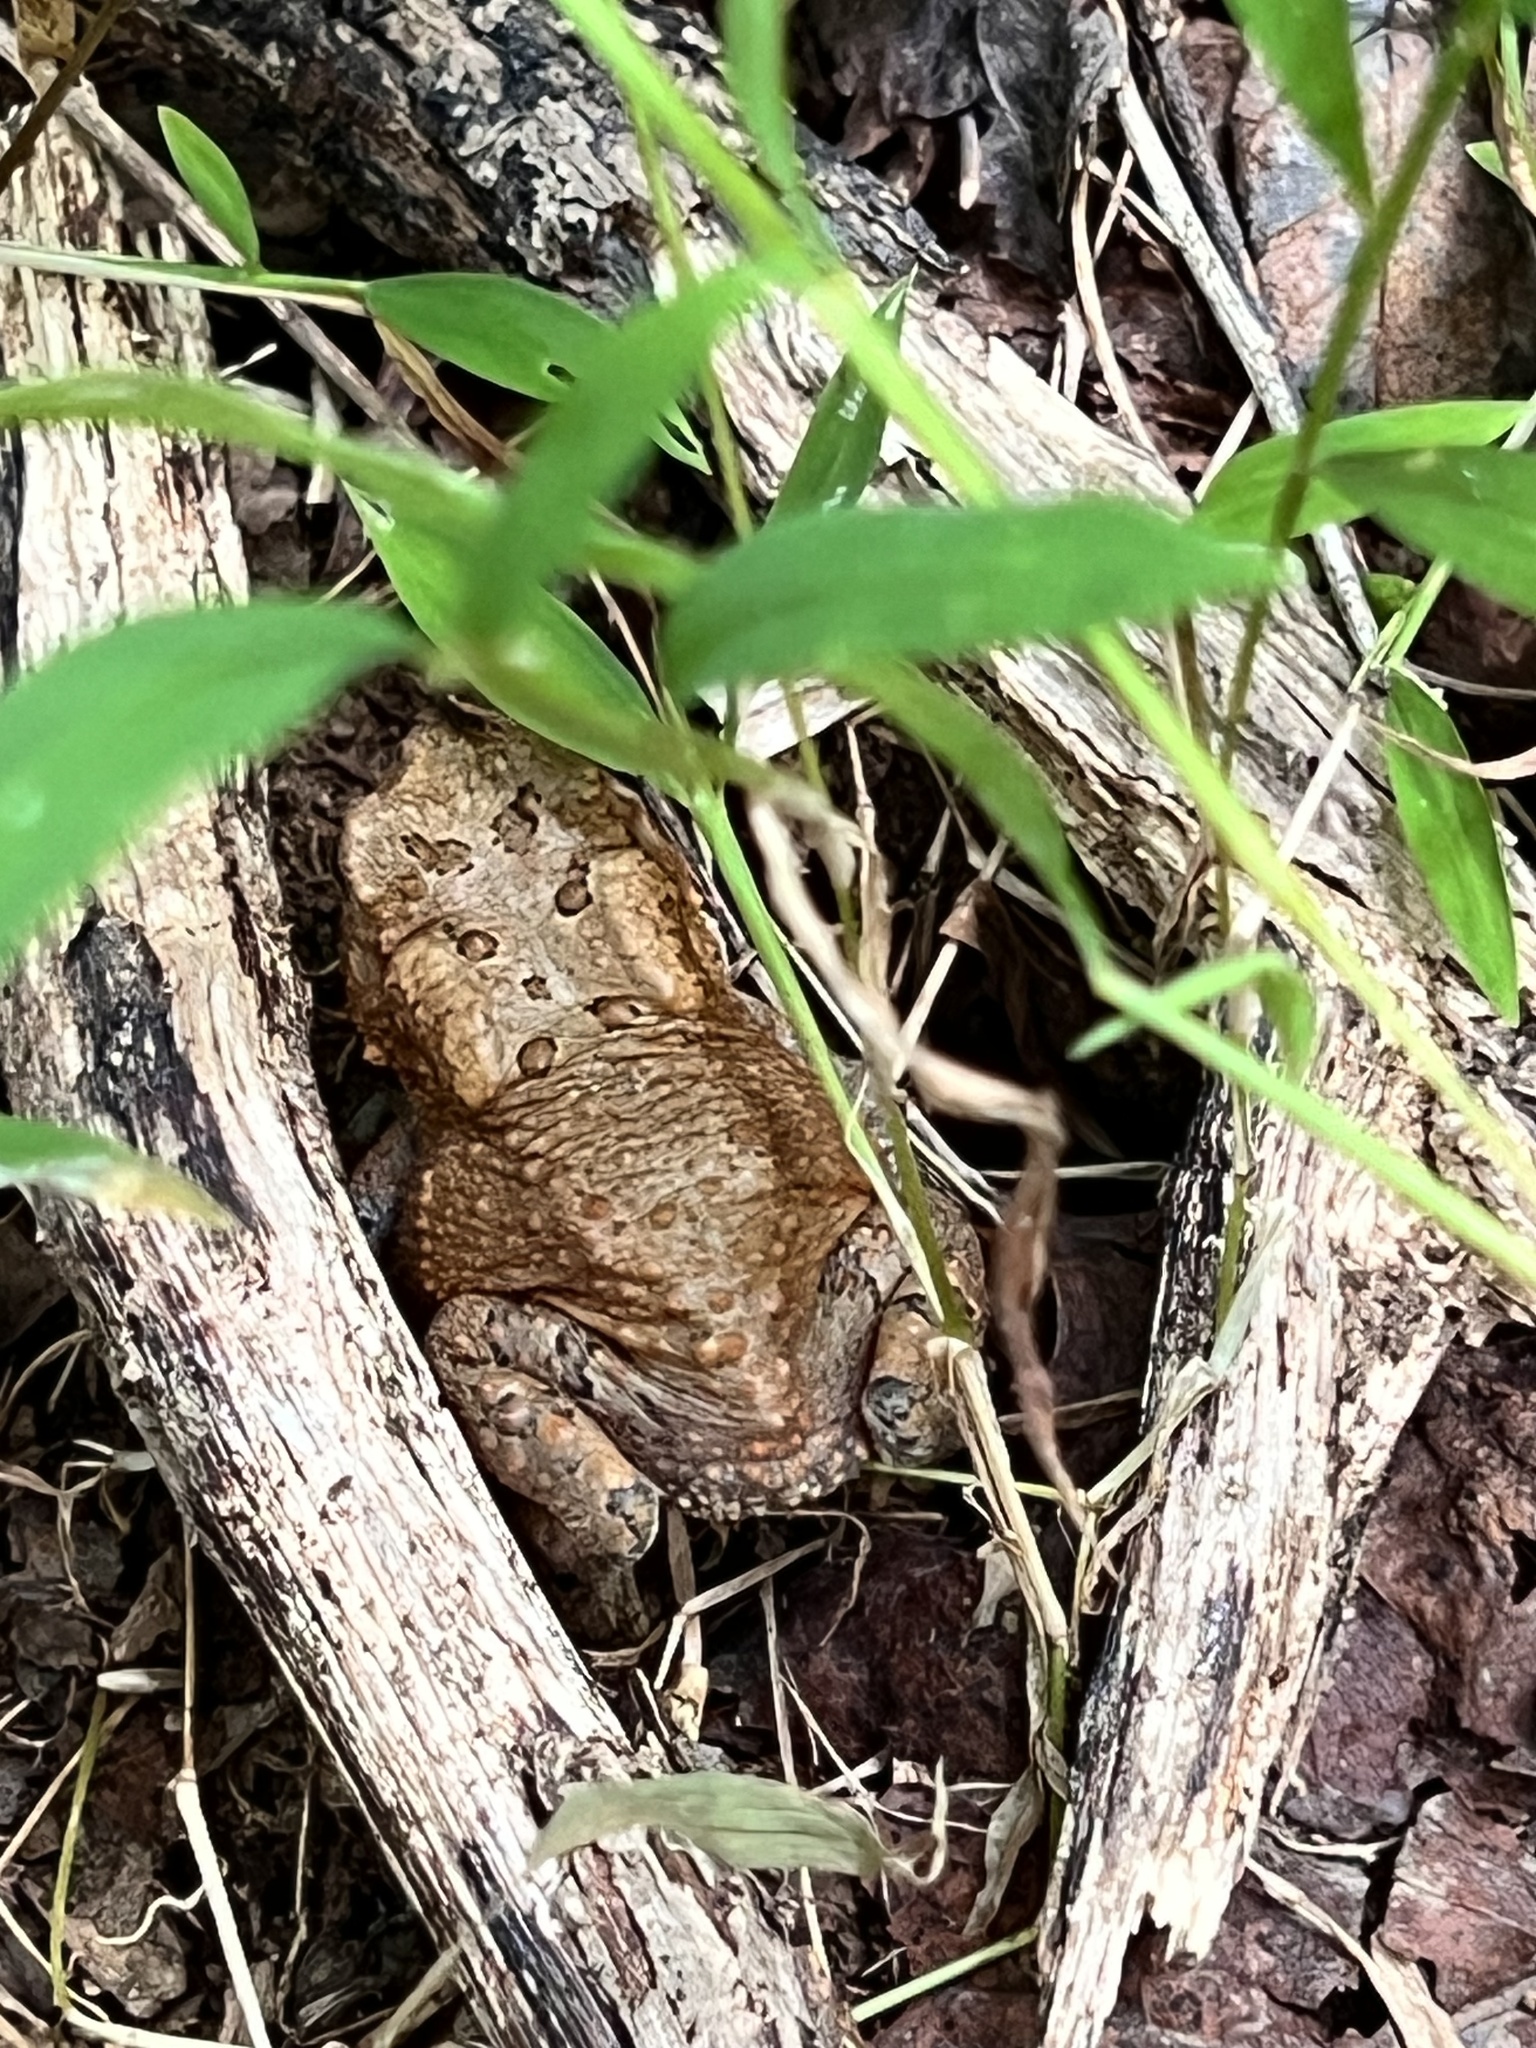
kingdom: Animalia
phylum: Chordata
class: Amphibia
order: Anura
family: Bufonidae
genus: Anaxyrus
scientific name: Anaxyrus americanus
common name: American toad
